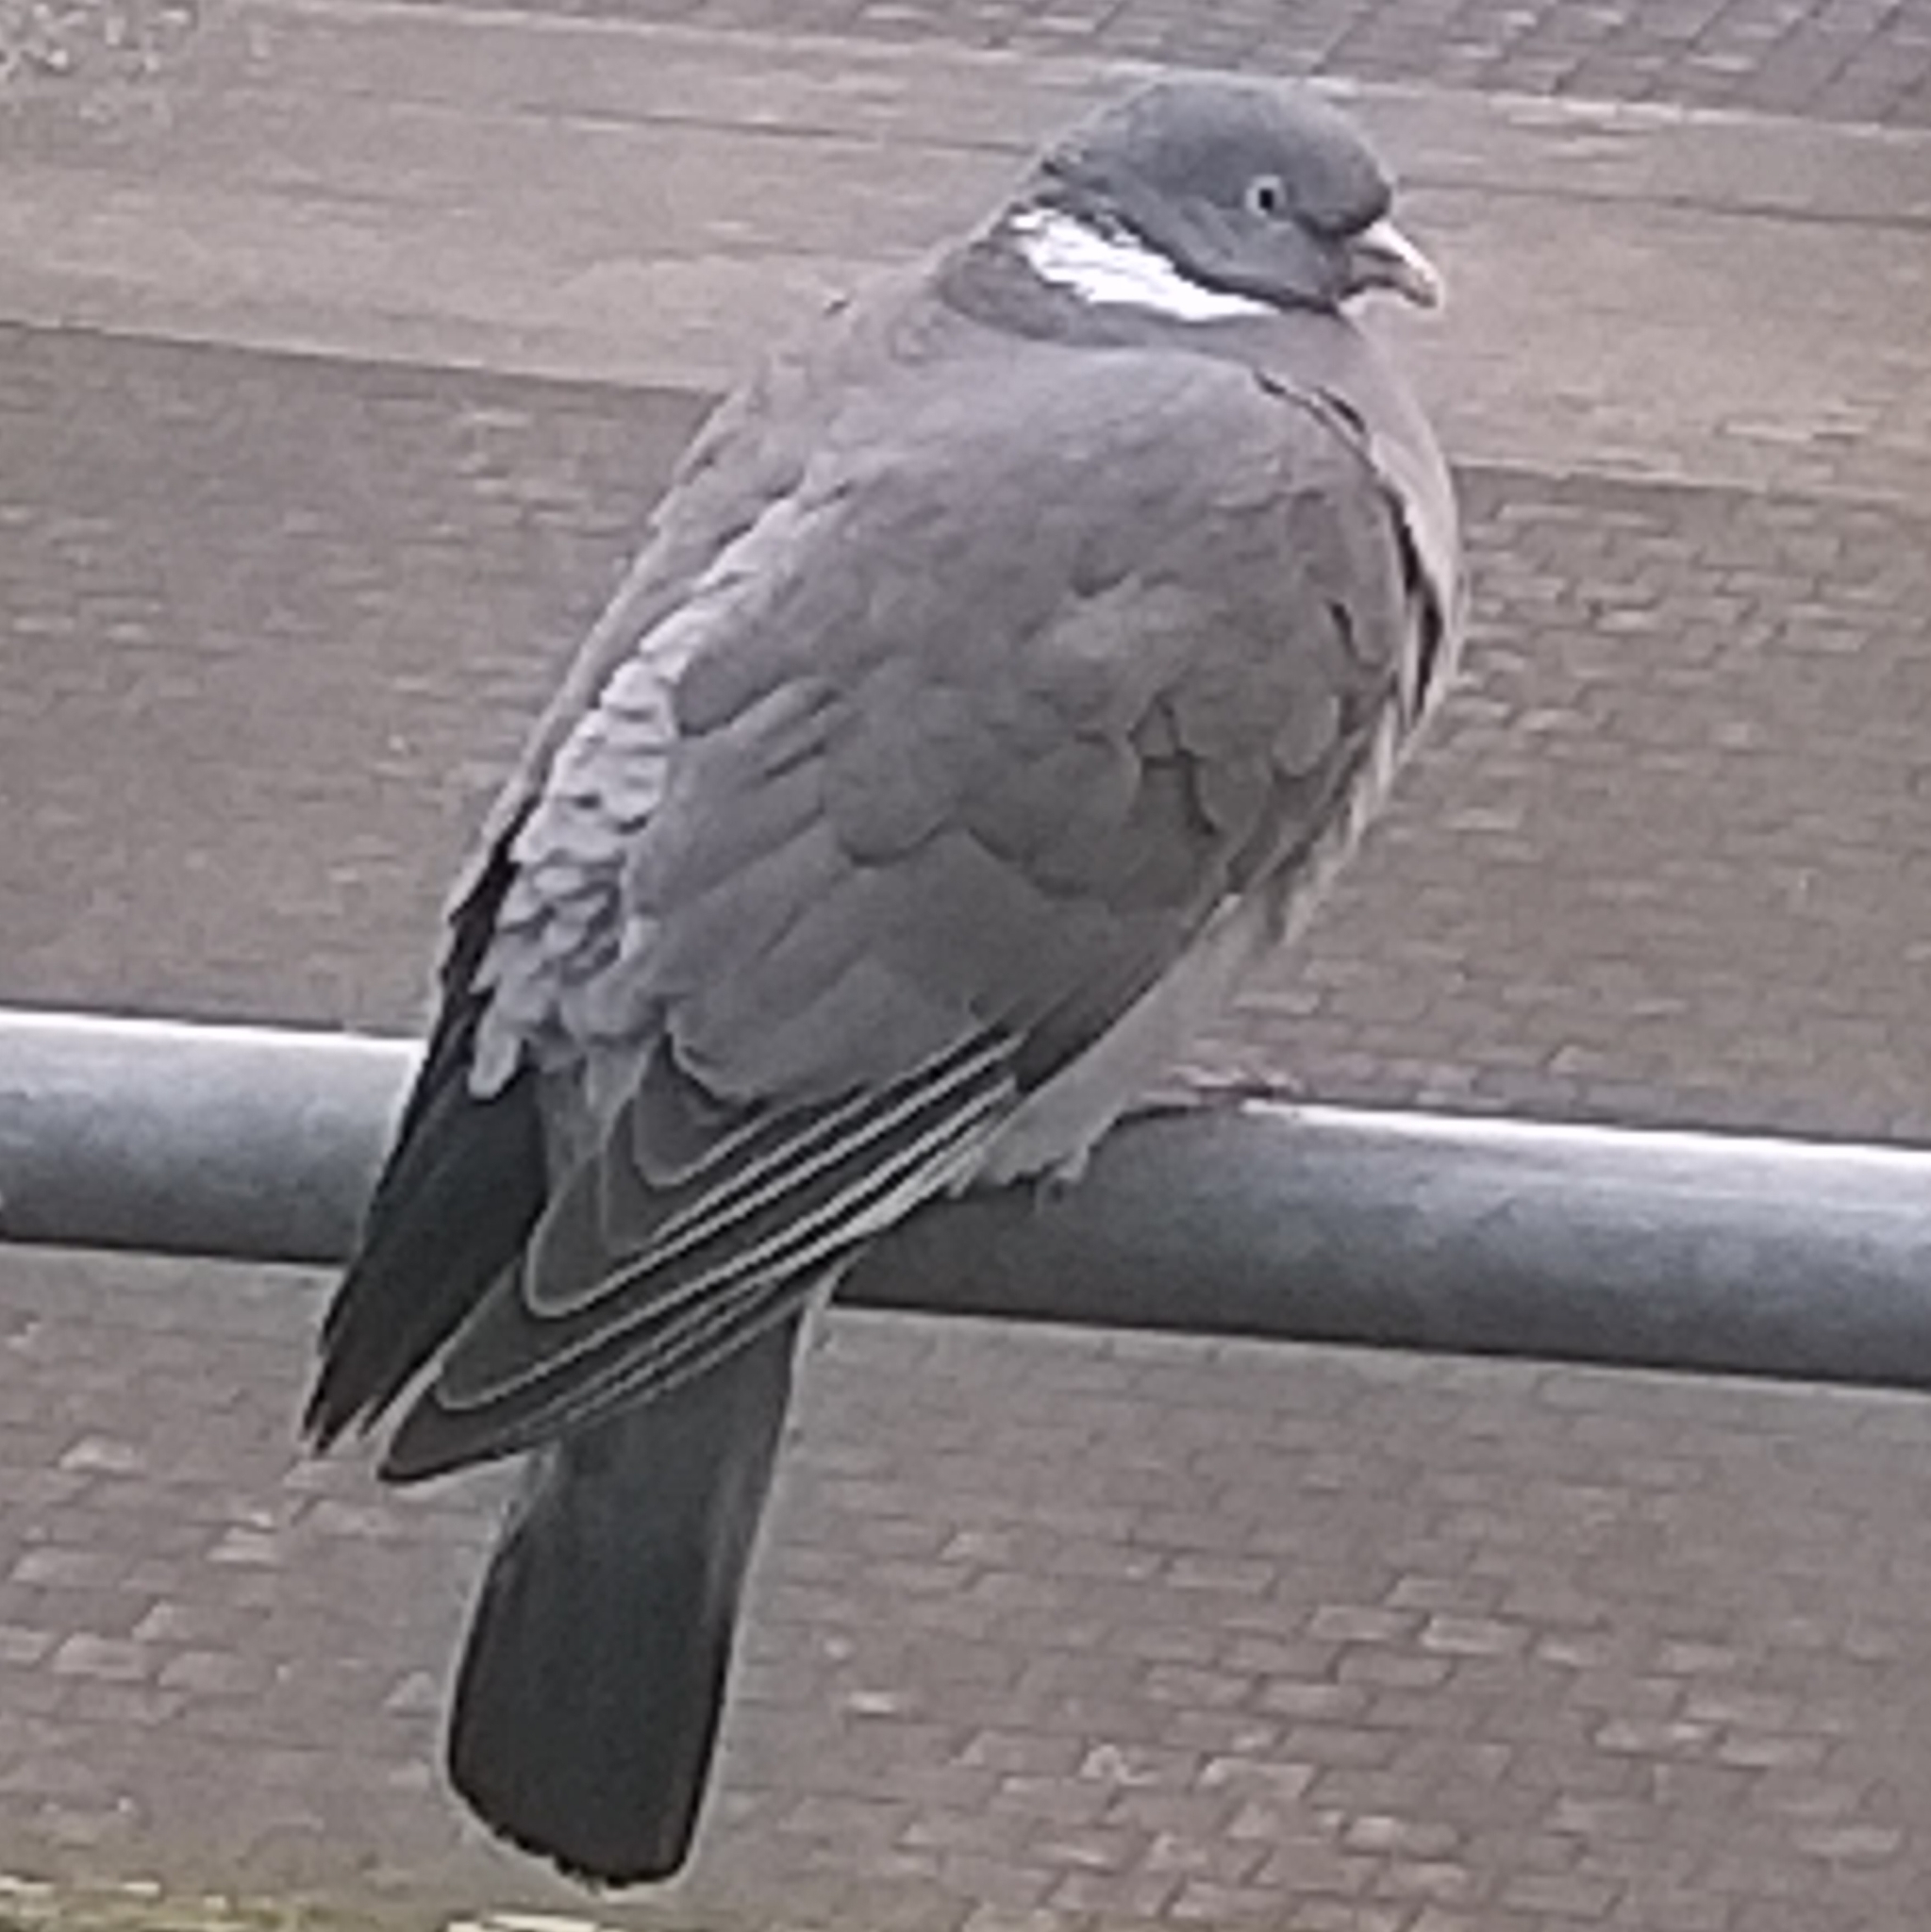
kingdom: Animalia
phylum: Chordata
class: Aves
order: Columbiformes
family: Columbidae
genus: Columba
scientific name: Columba palumbus
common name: Common wood pigeon
